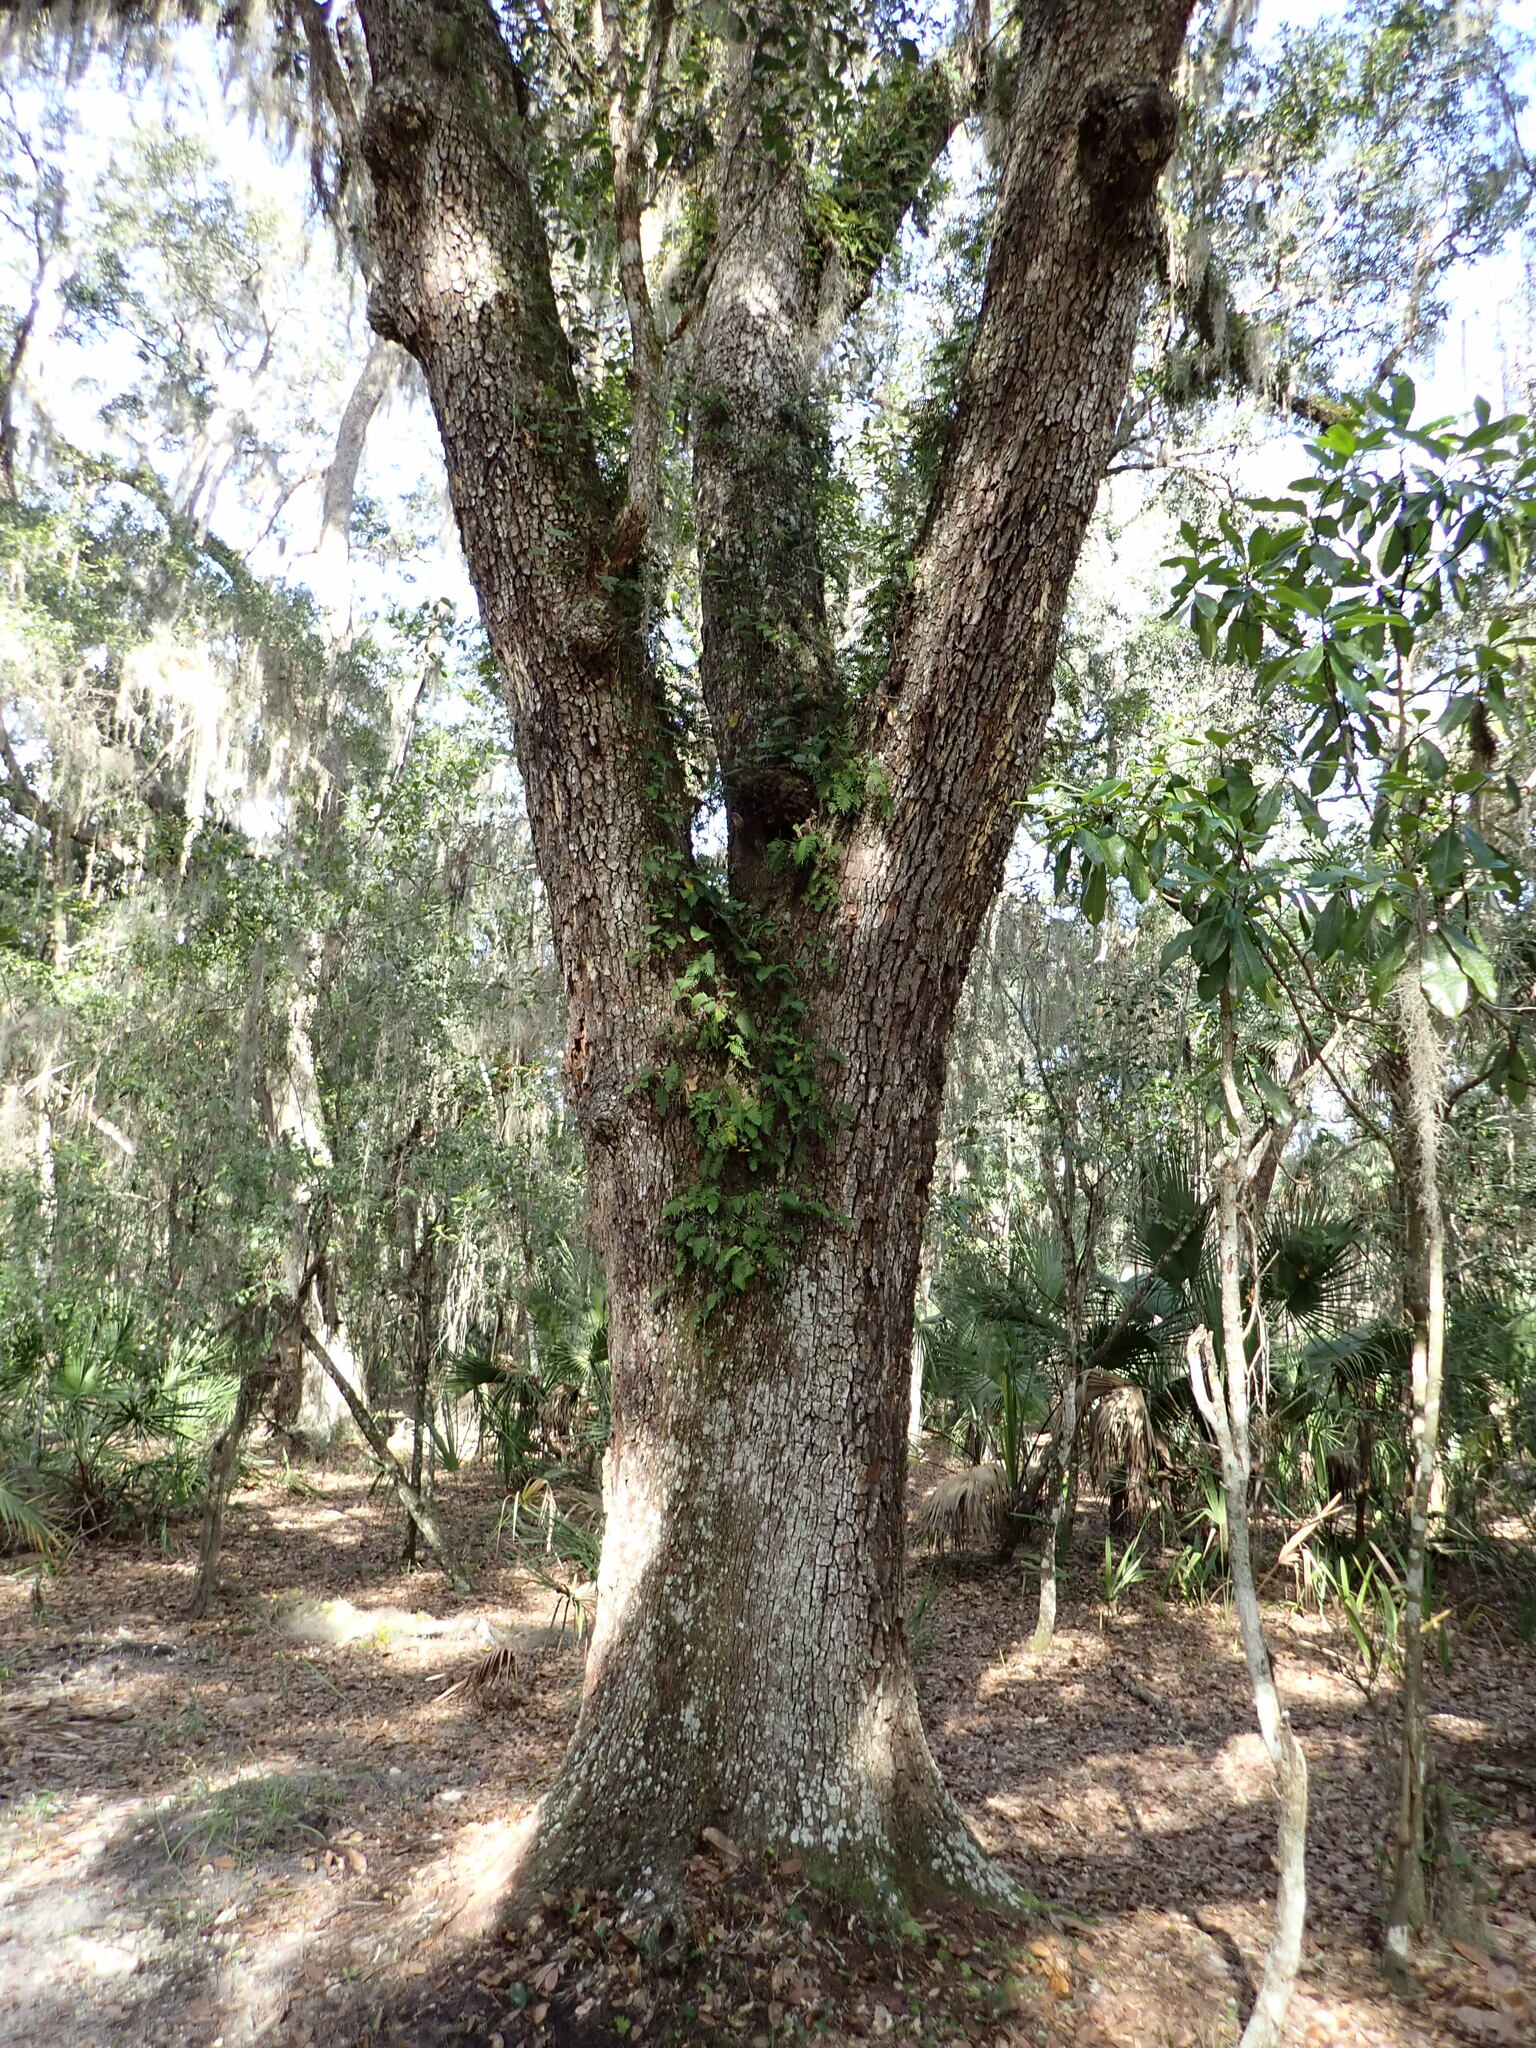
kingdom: Plantae
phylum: Tracheophyta
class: Polypodiopsida
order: Polypodiales
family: Polypodiaceae
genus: Pleopeltis
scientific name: Pleopeltis michauxiana
